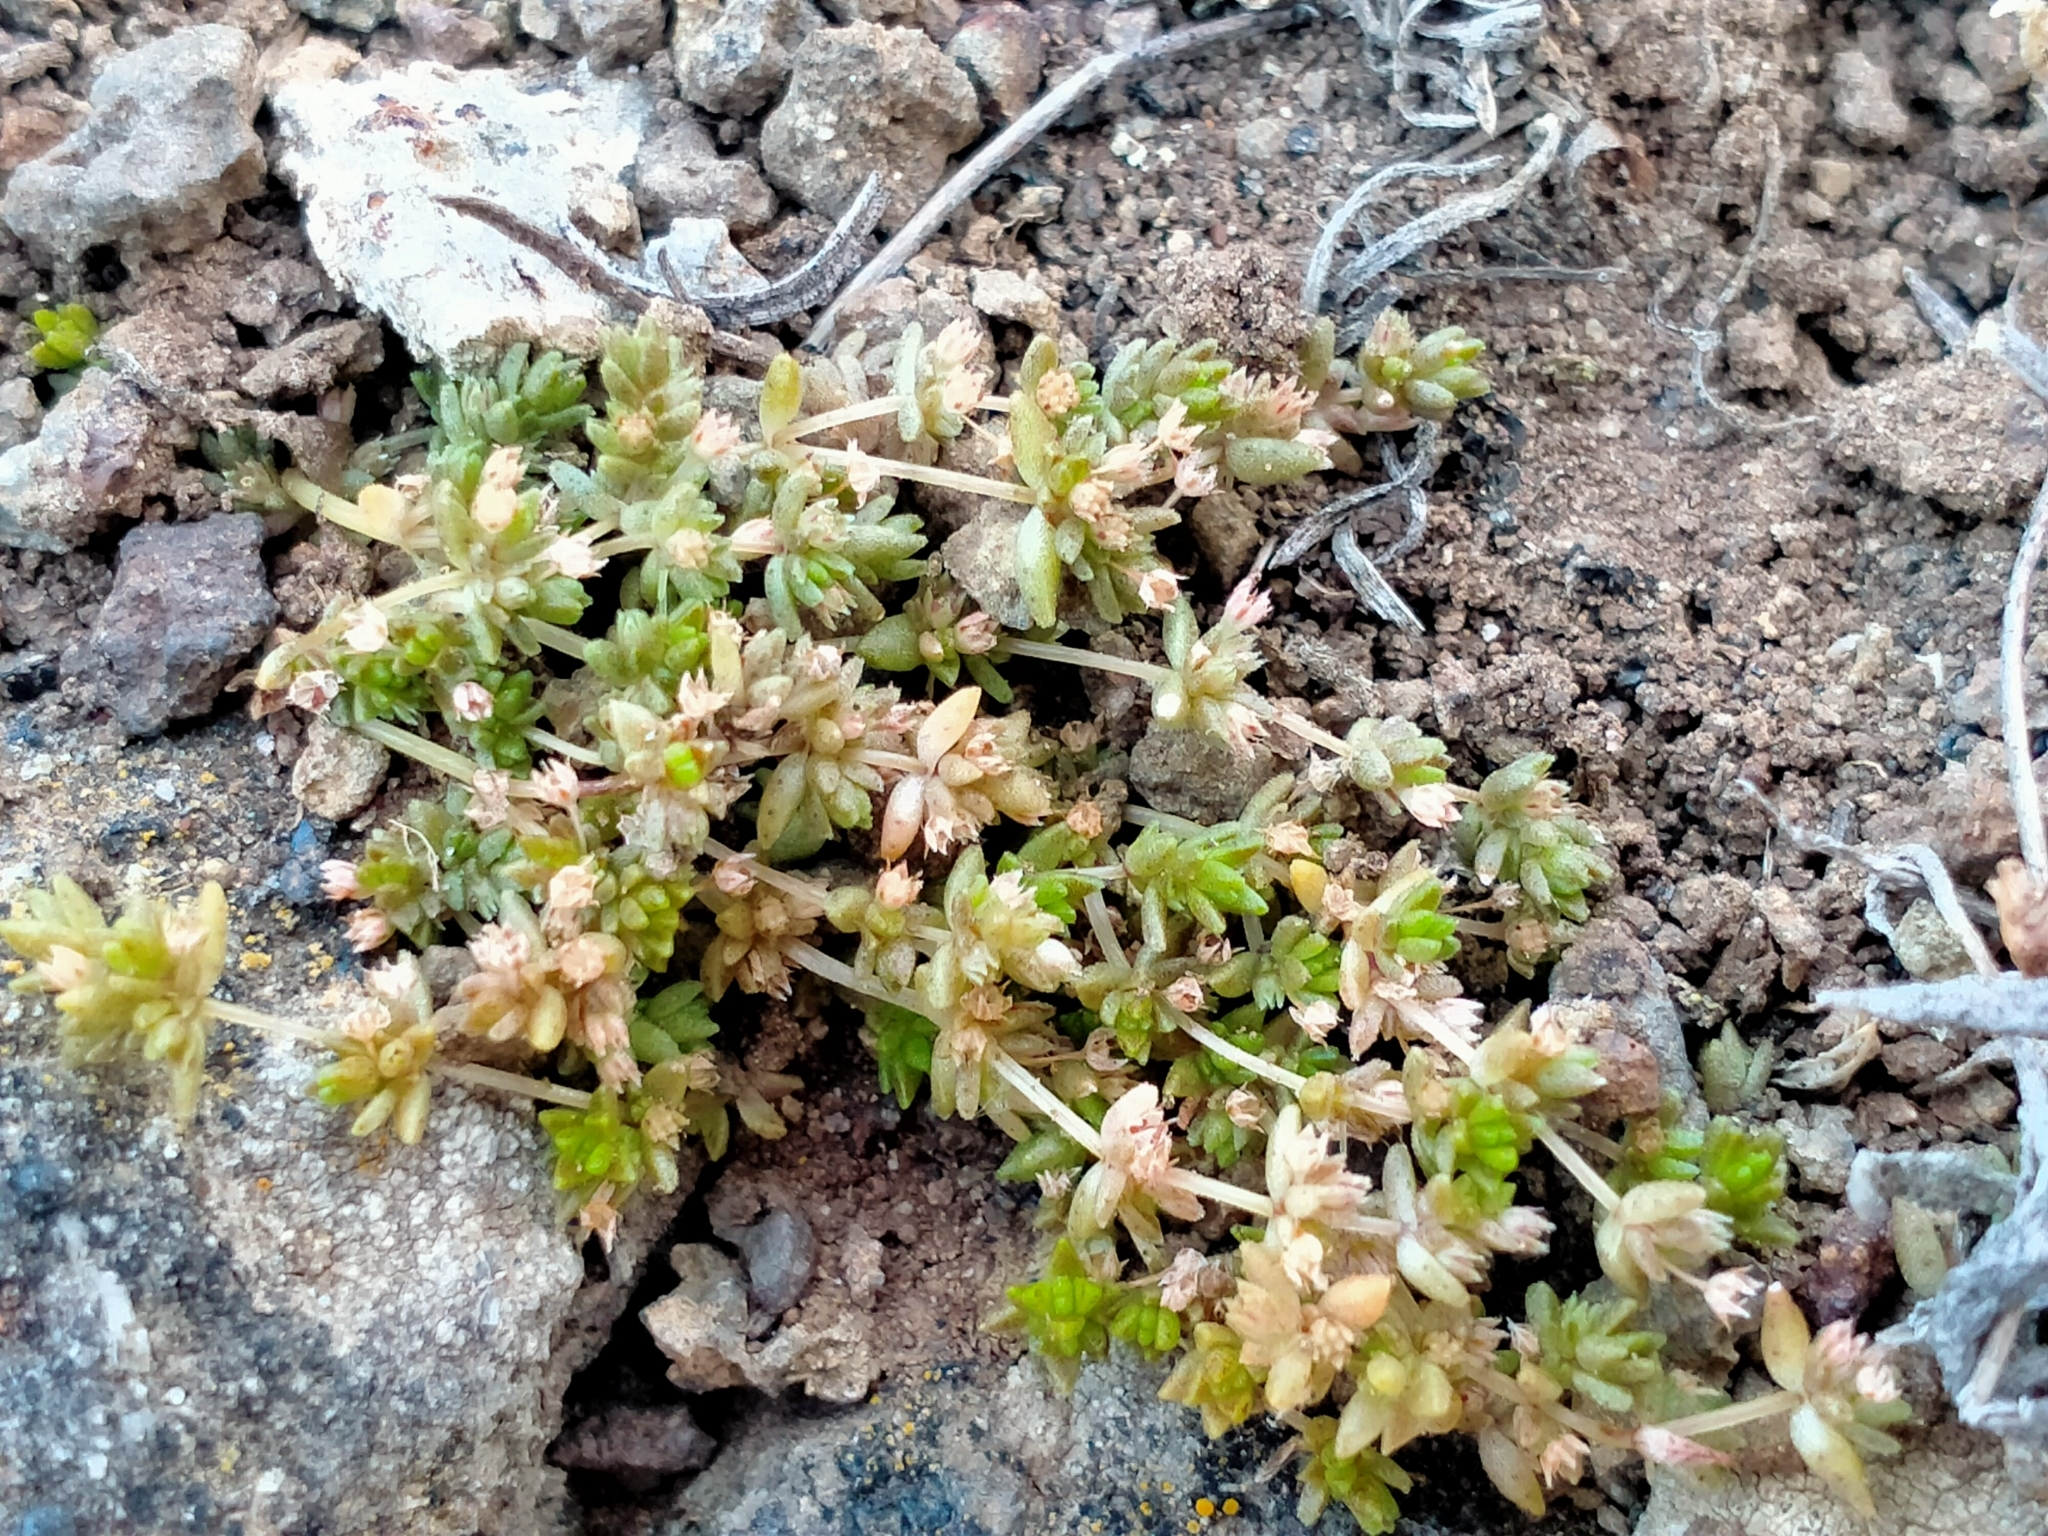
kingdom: Plantae
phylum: Tracheophyta
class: Magnoliopsida
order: Saxifragales
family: Crassulaceae
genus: Crassula
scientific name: Crassula mataikona
